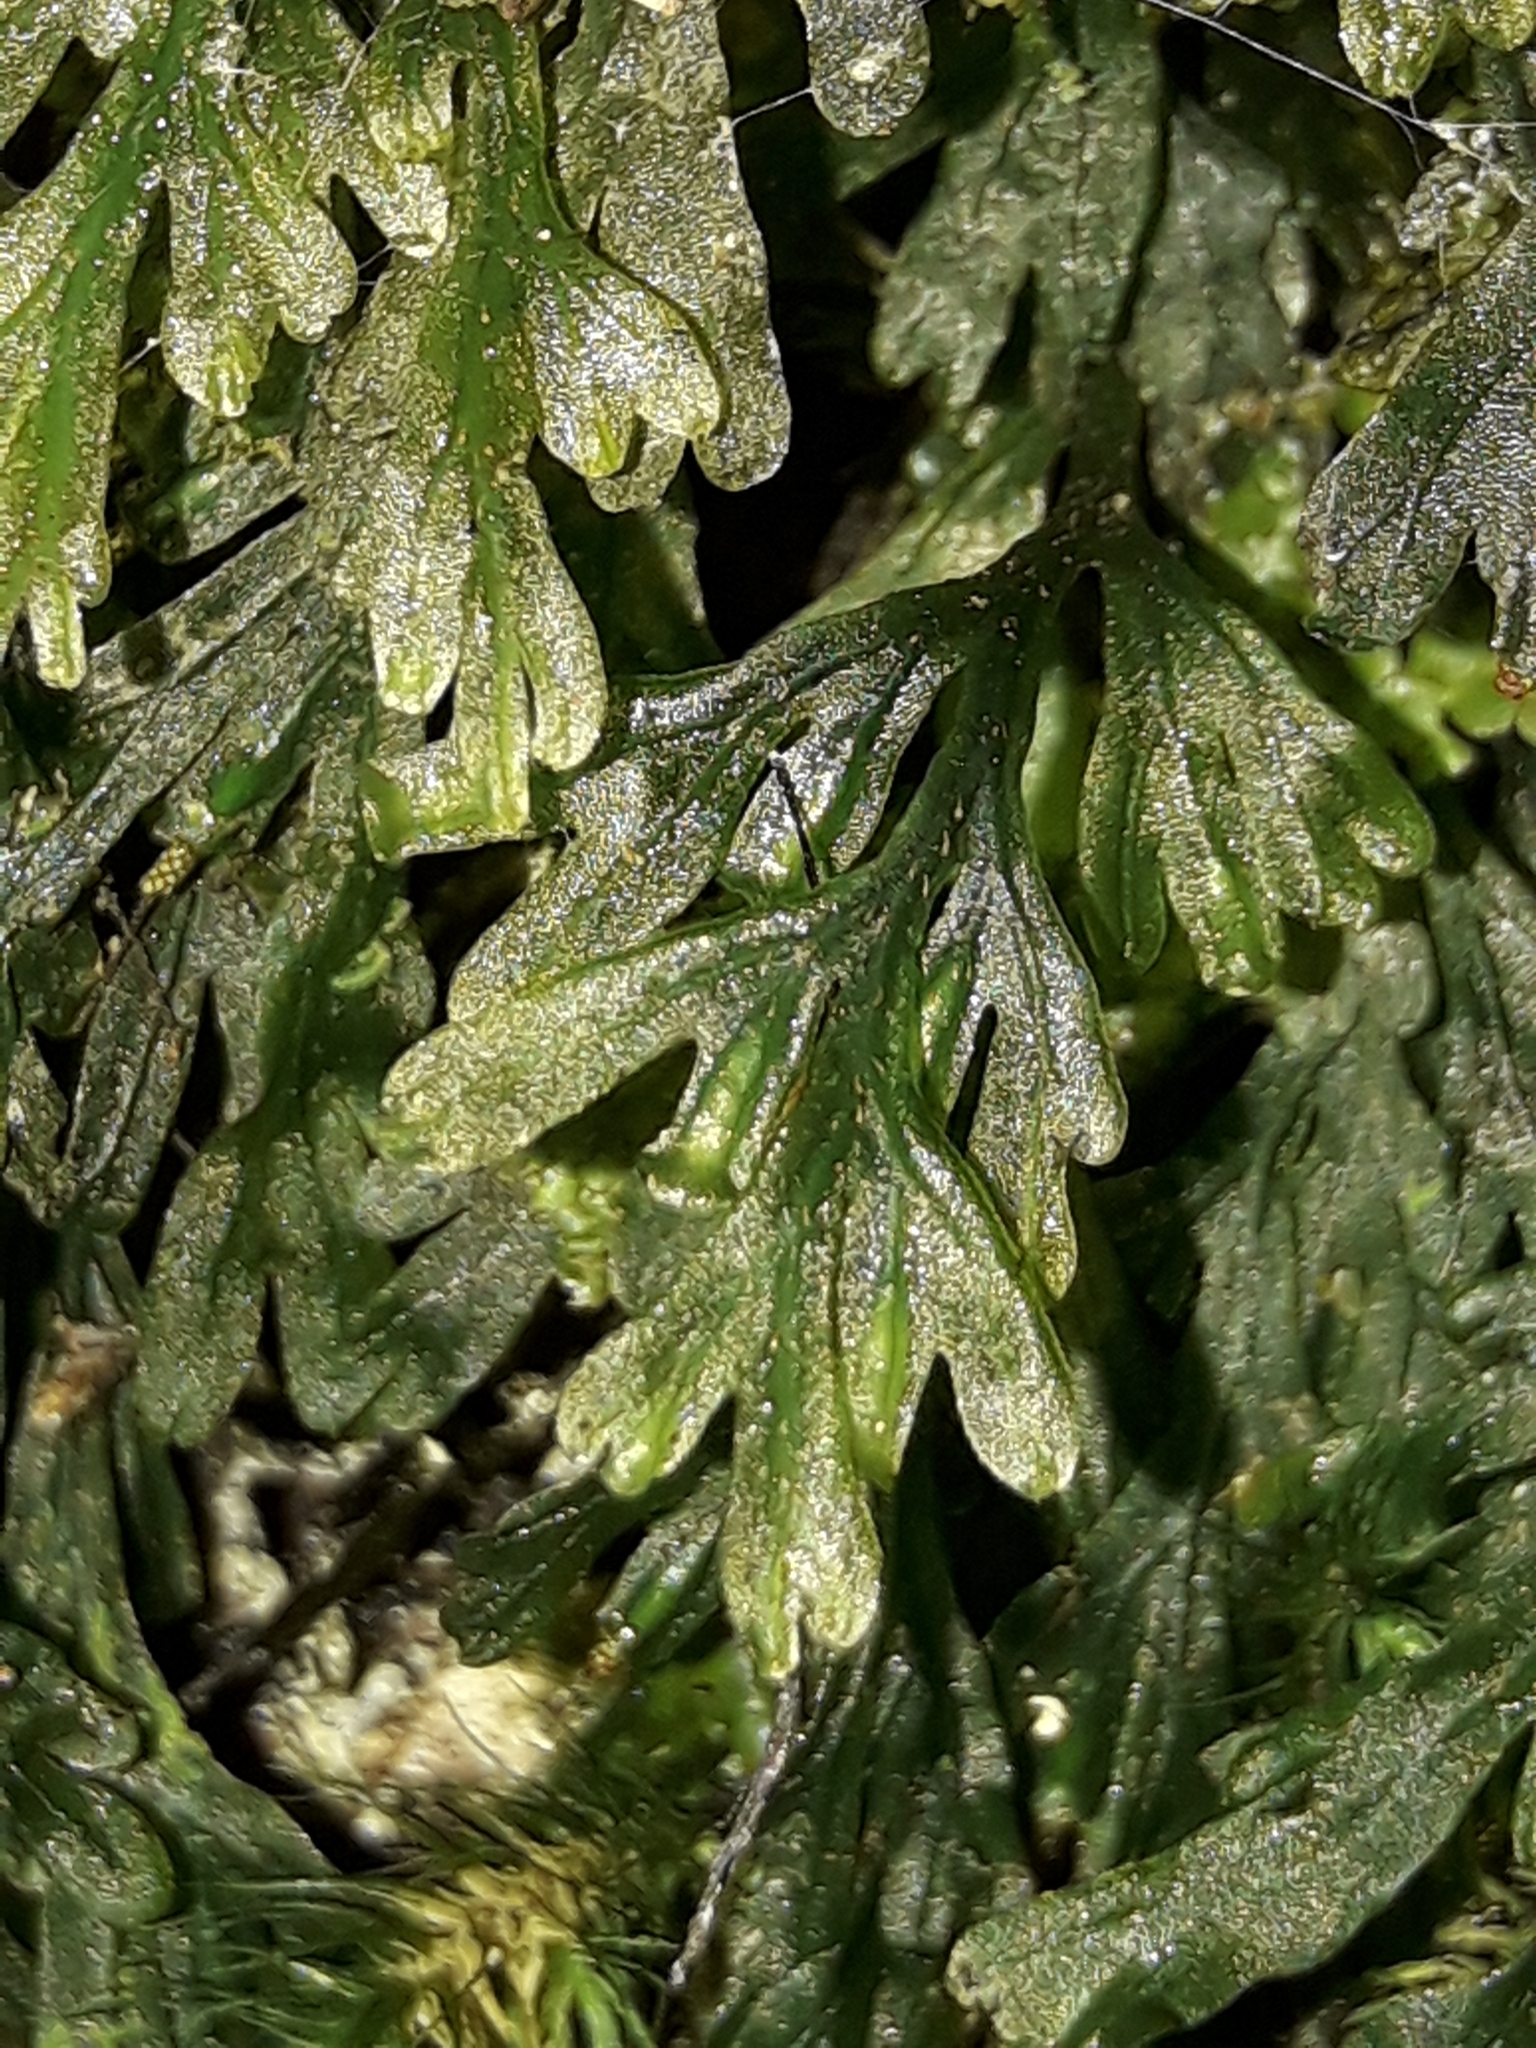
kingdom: Plantae
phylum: Tracheophyta
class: Polypodiopsida
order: Hymenophyllales
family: Hymenophyllaceae
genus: Polyphlebium
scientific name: Polyphlebium endlicherianum
